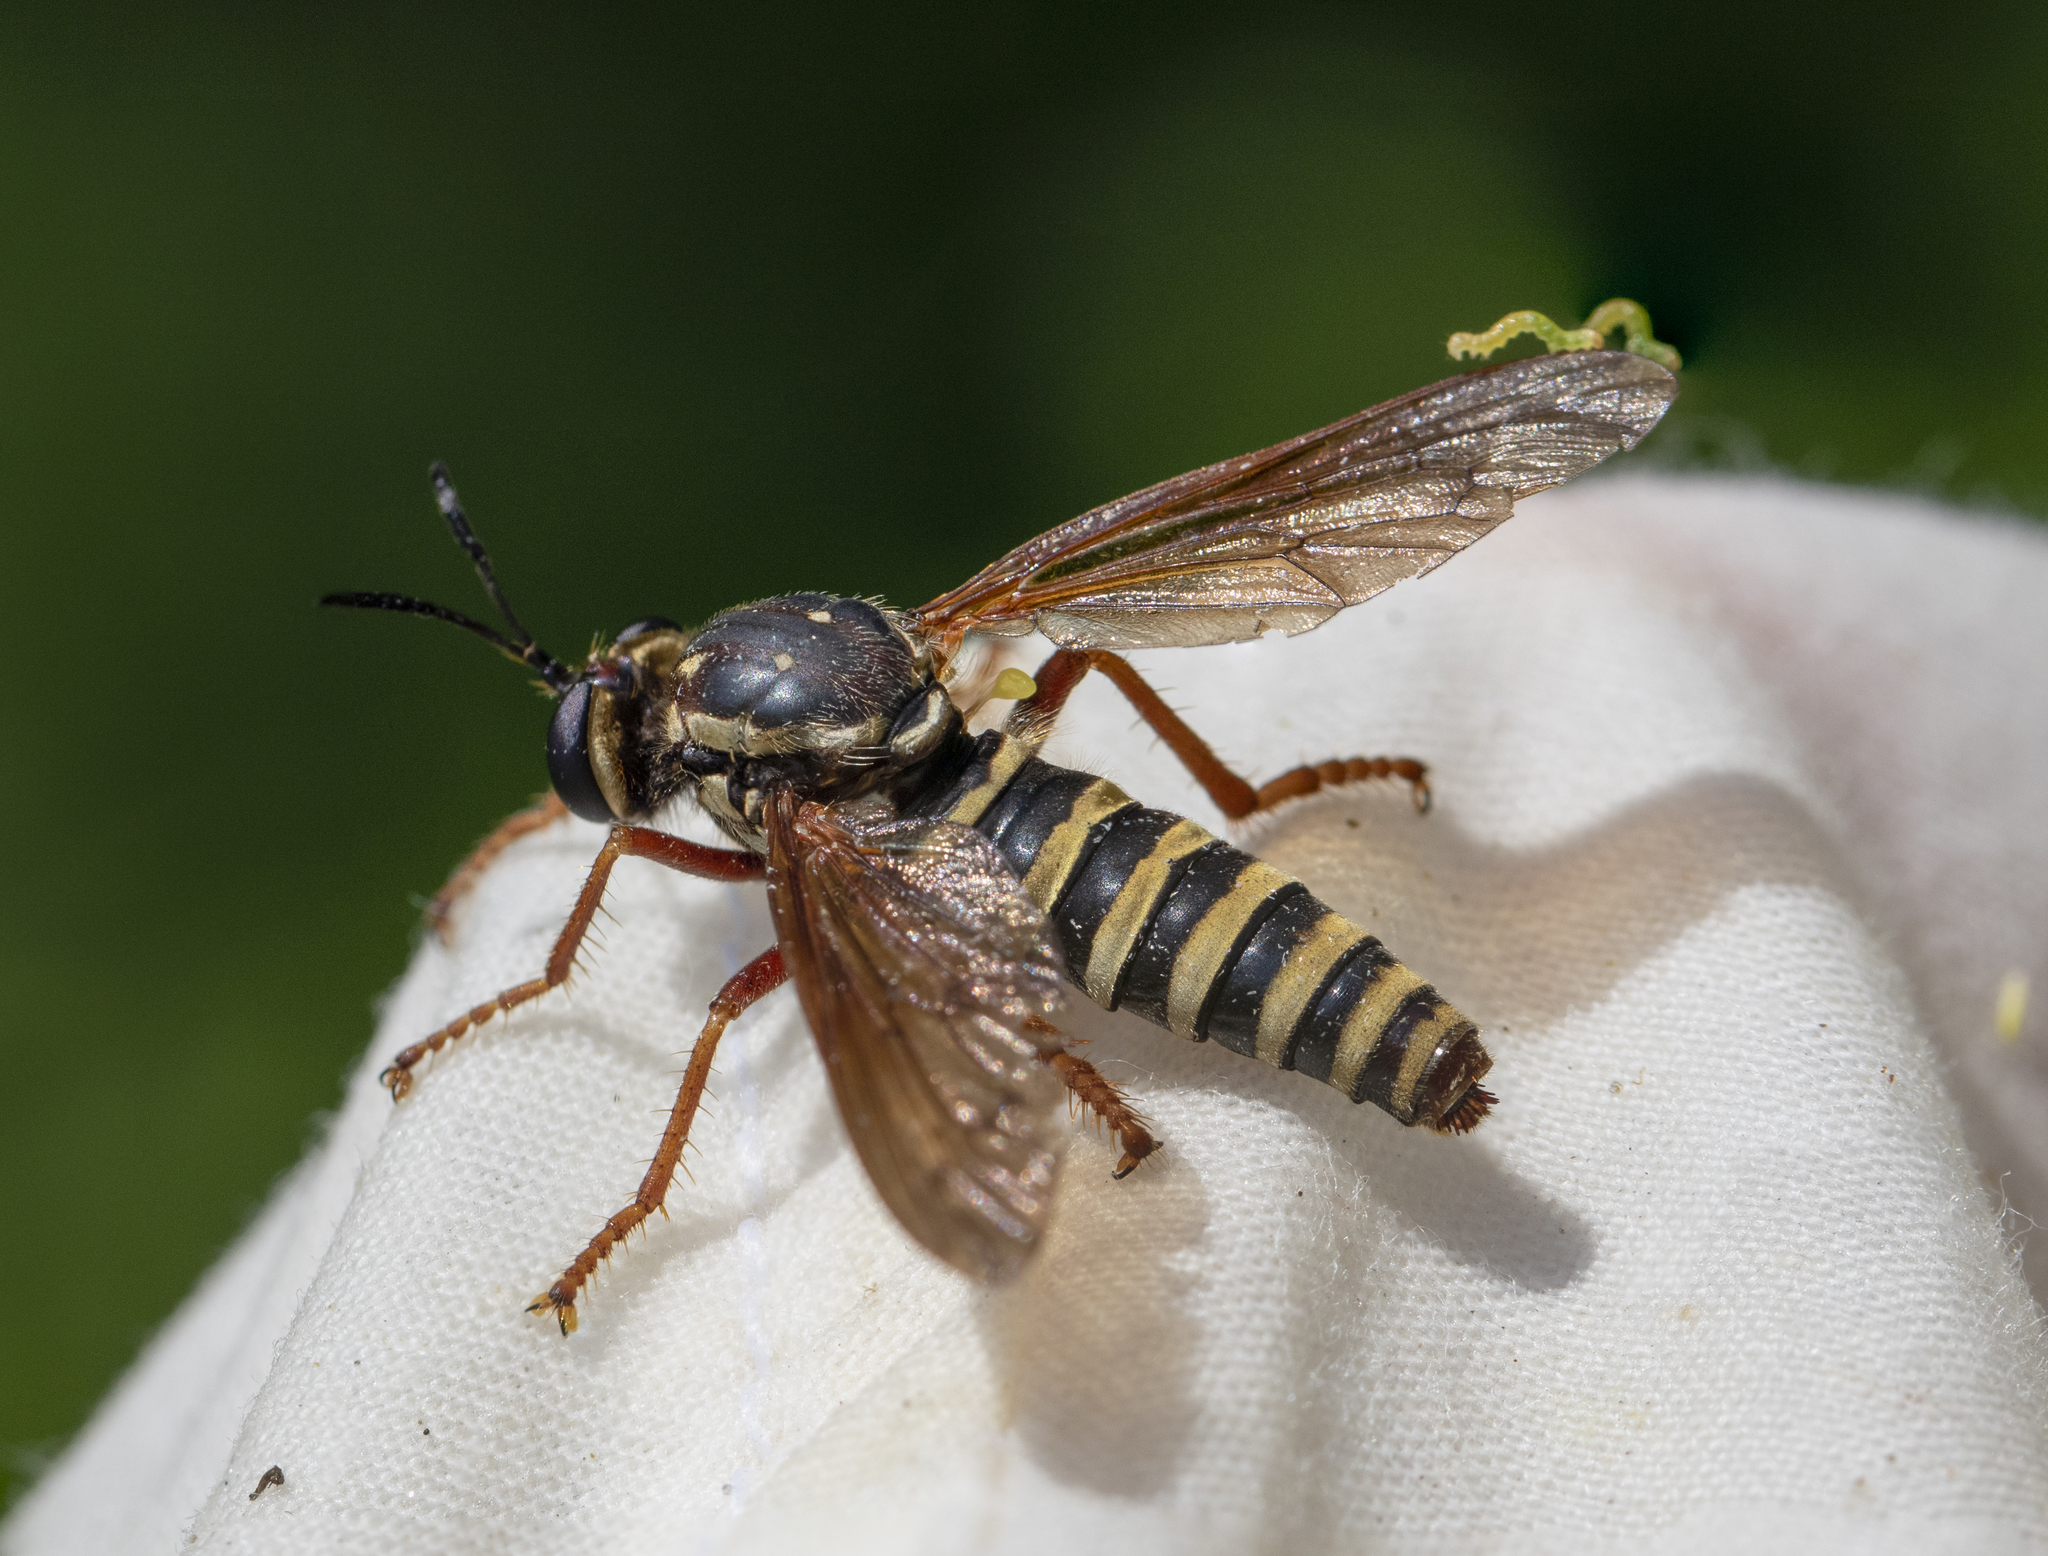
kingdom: Animalia
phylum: Arthropoda
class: Insecta
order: Diptera
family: Asilidae
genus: Ceraturgus
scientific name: Ceraturgus fasciatus
